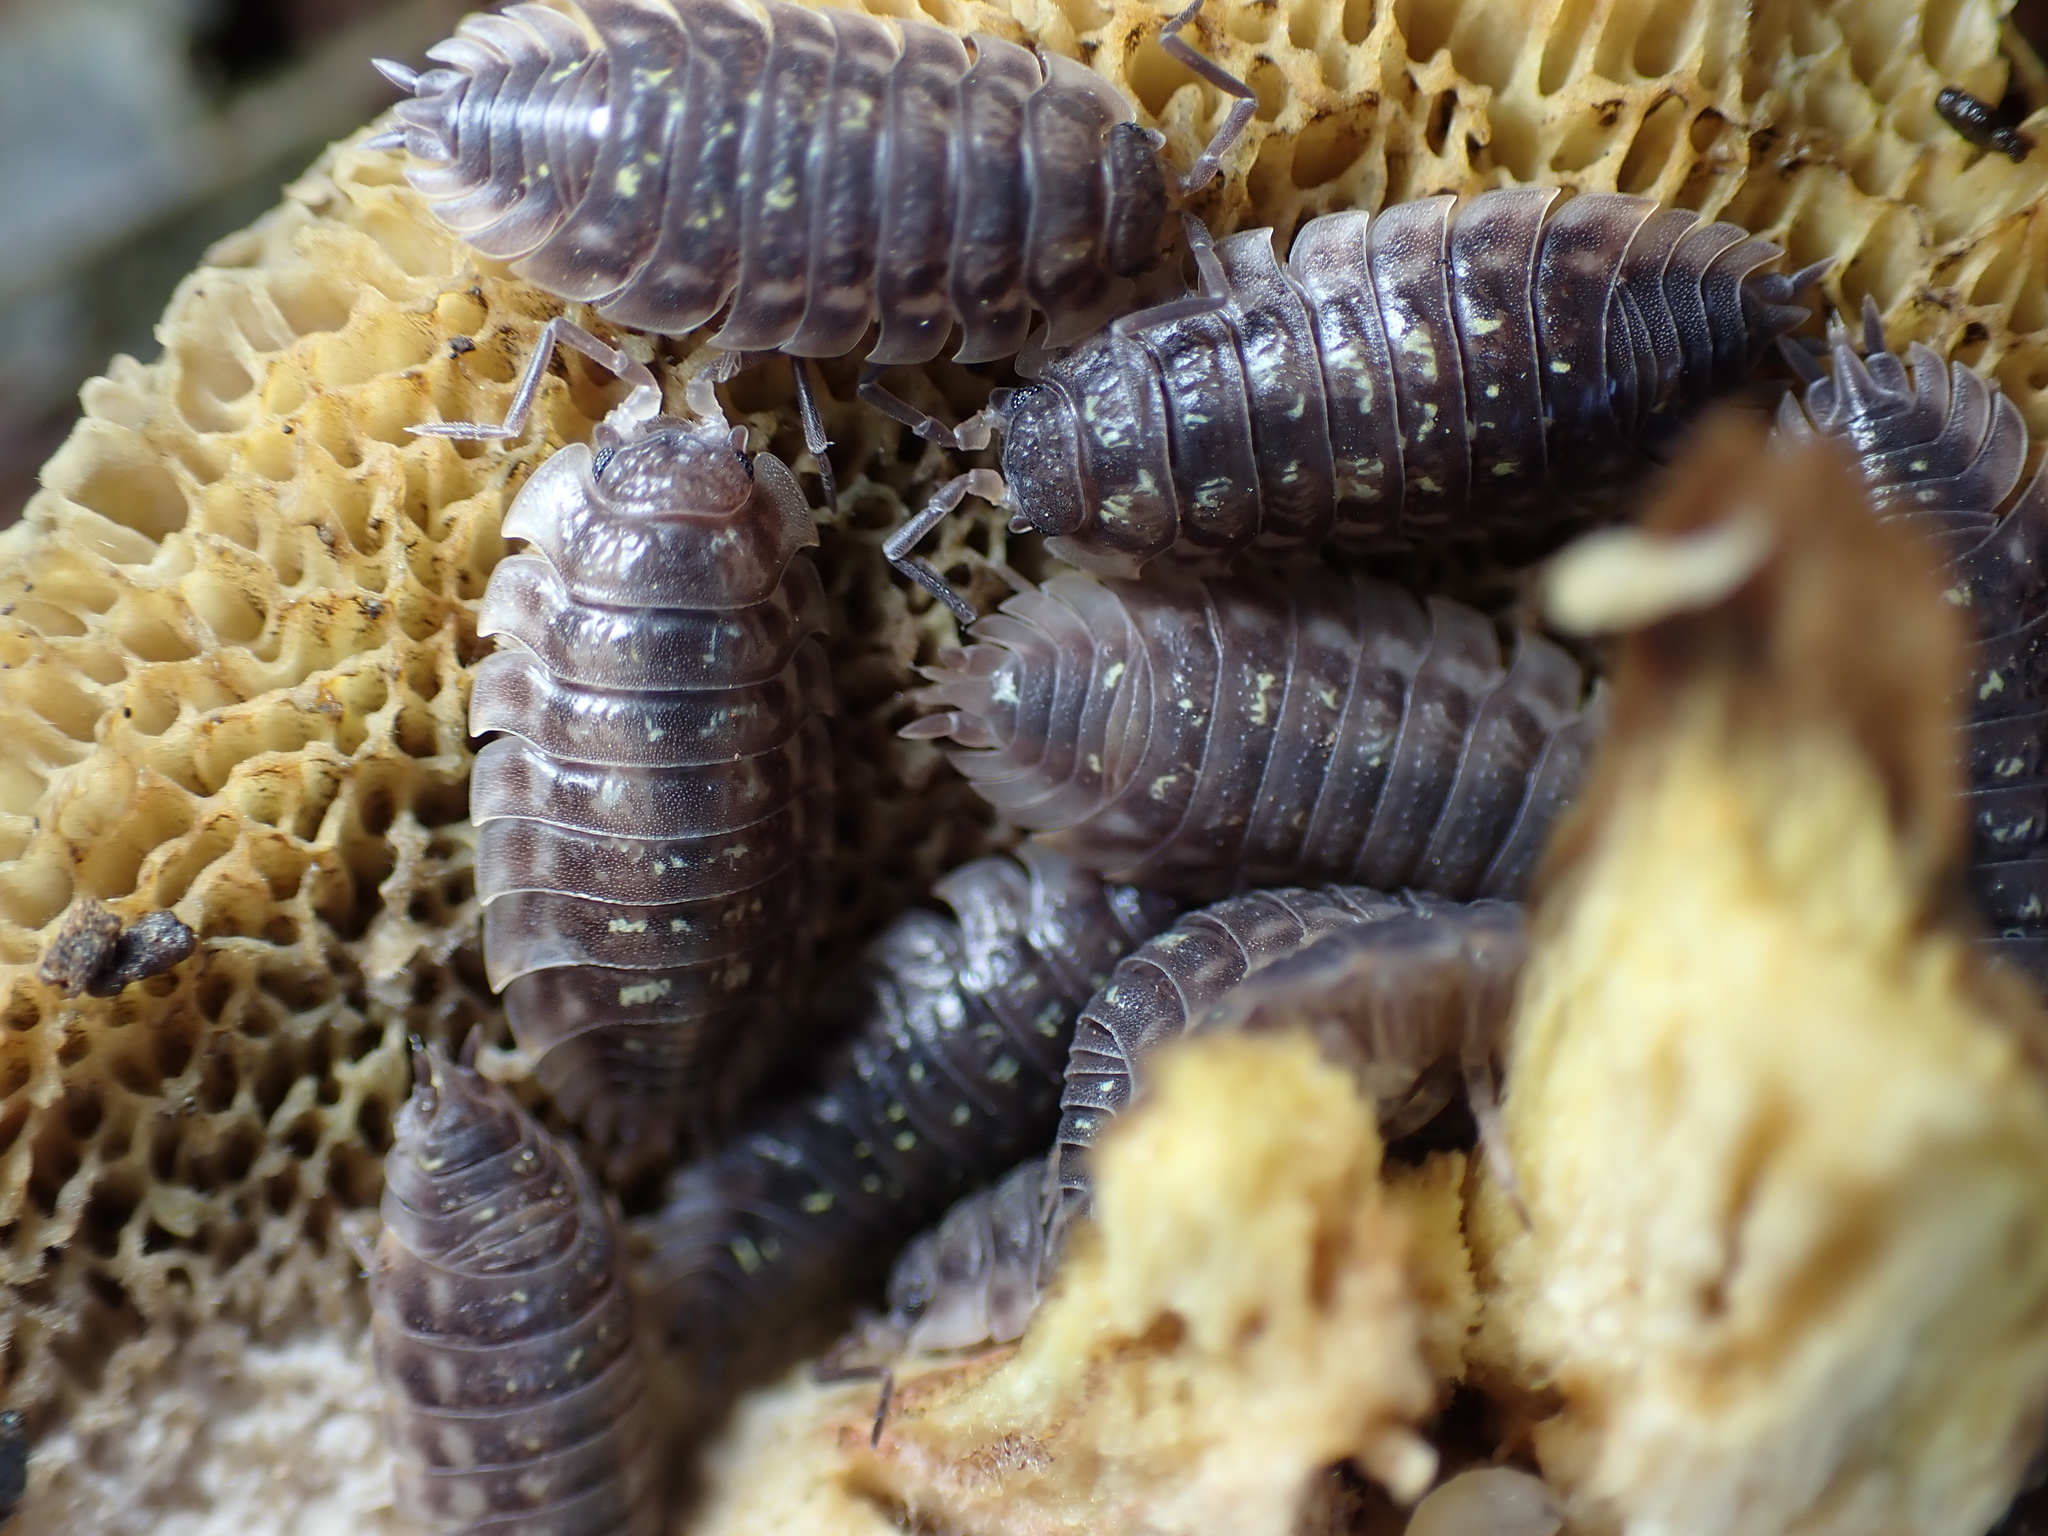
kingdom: Animalia
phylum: Arthropoda
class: Malacostraca
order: Isopoda
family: Oniscidae
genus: Oniscus
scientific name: Oniscus asellus
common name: Common shiny woodlouse
